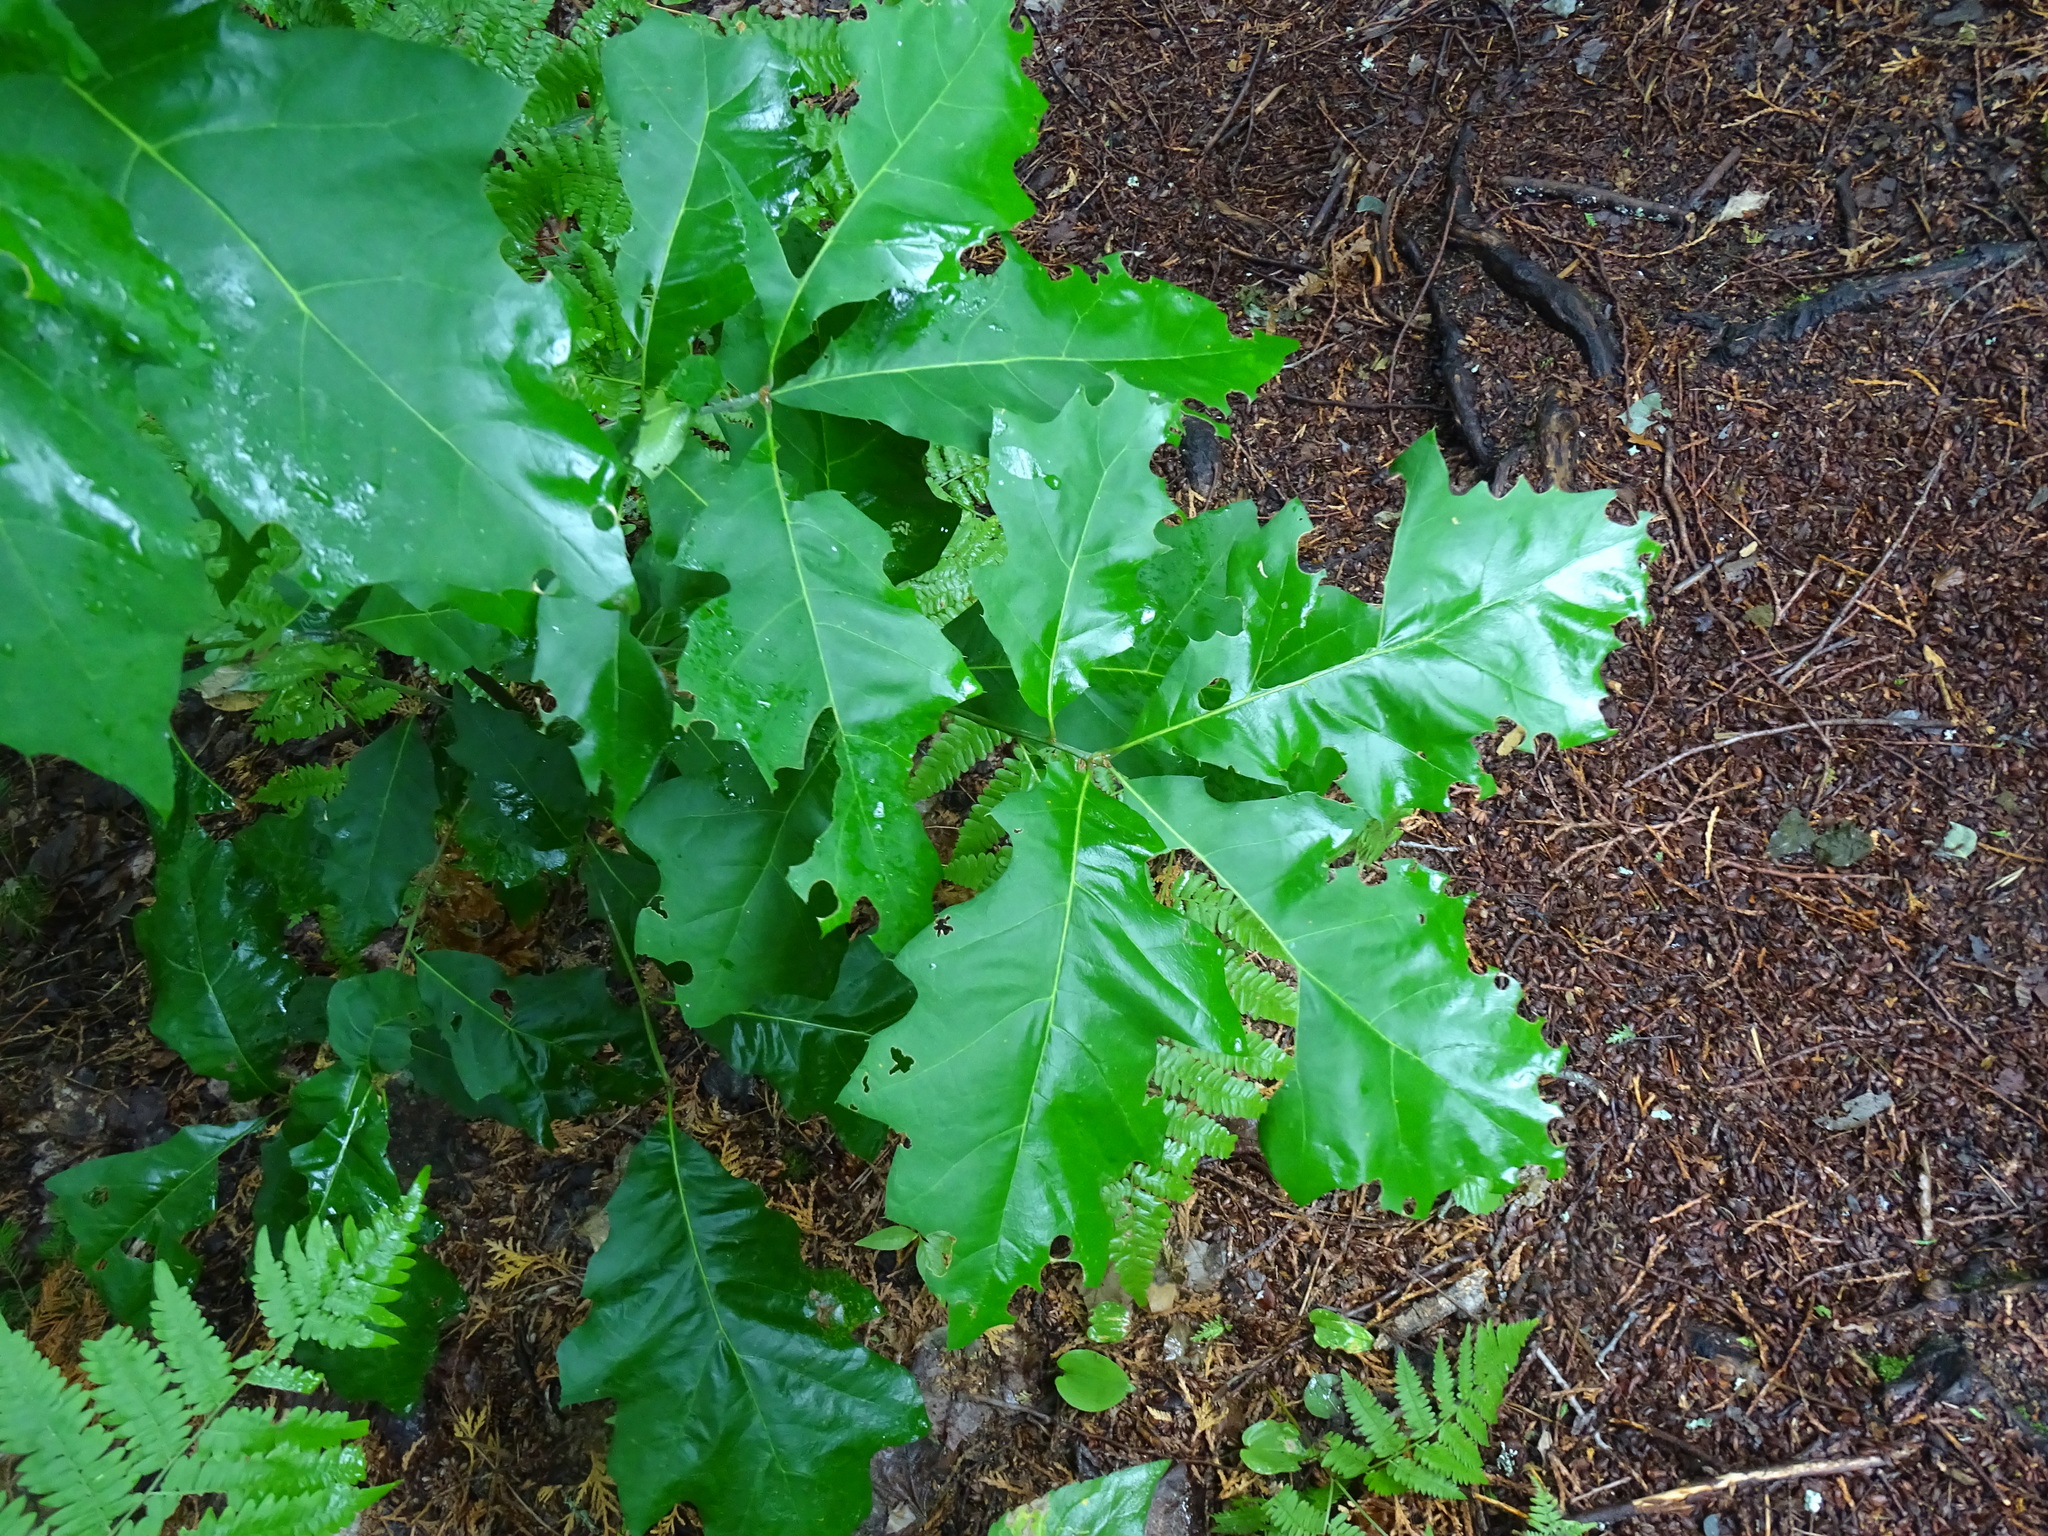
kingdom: Plantae
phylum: Tracheophyta
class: Magnoliopsida
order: Fagales
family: Fagaceae
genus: Quercus
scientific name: Quercus rubra
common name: Red oak
